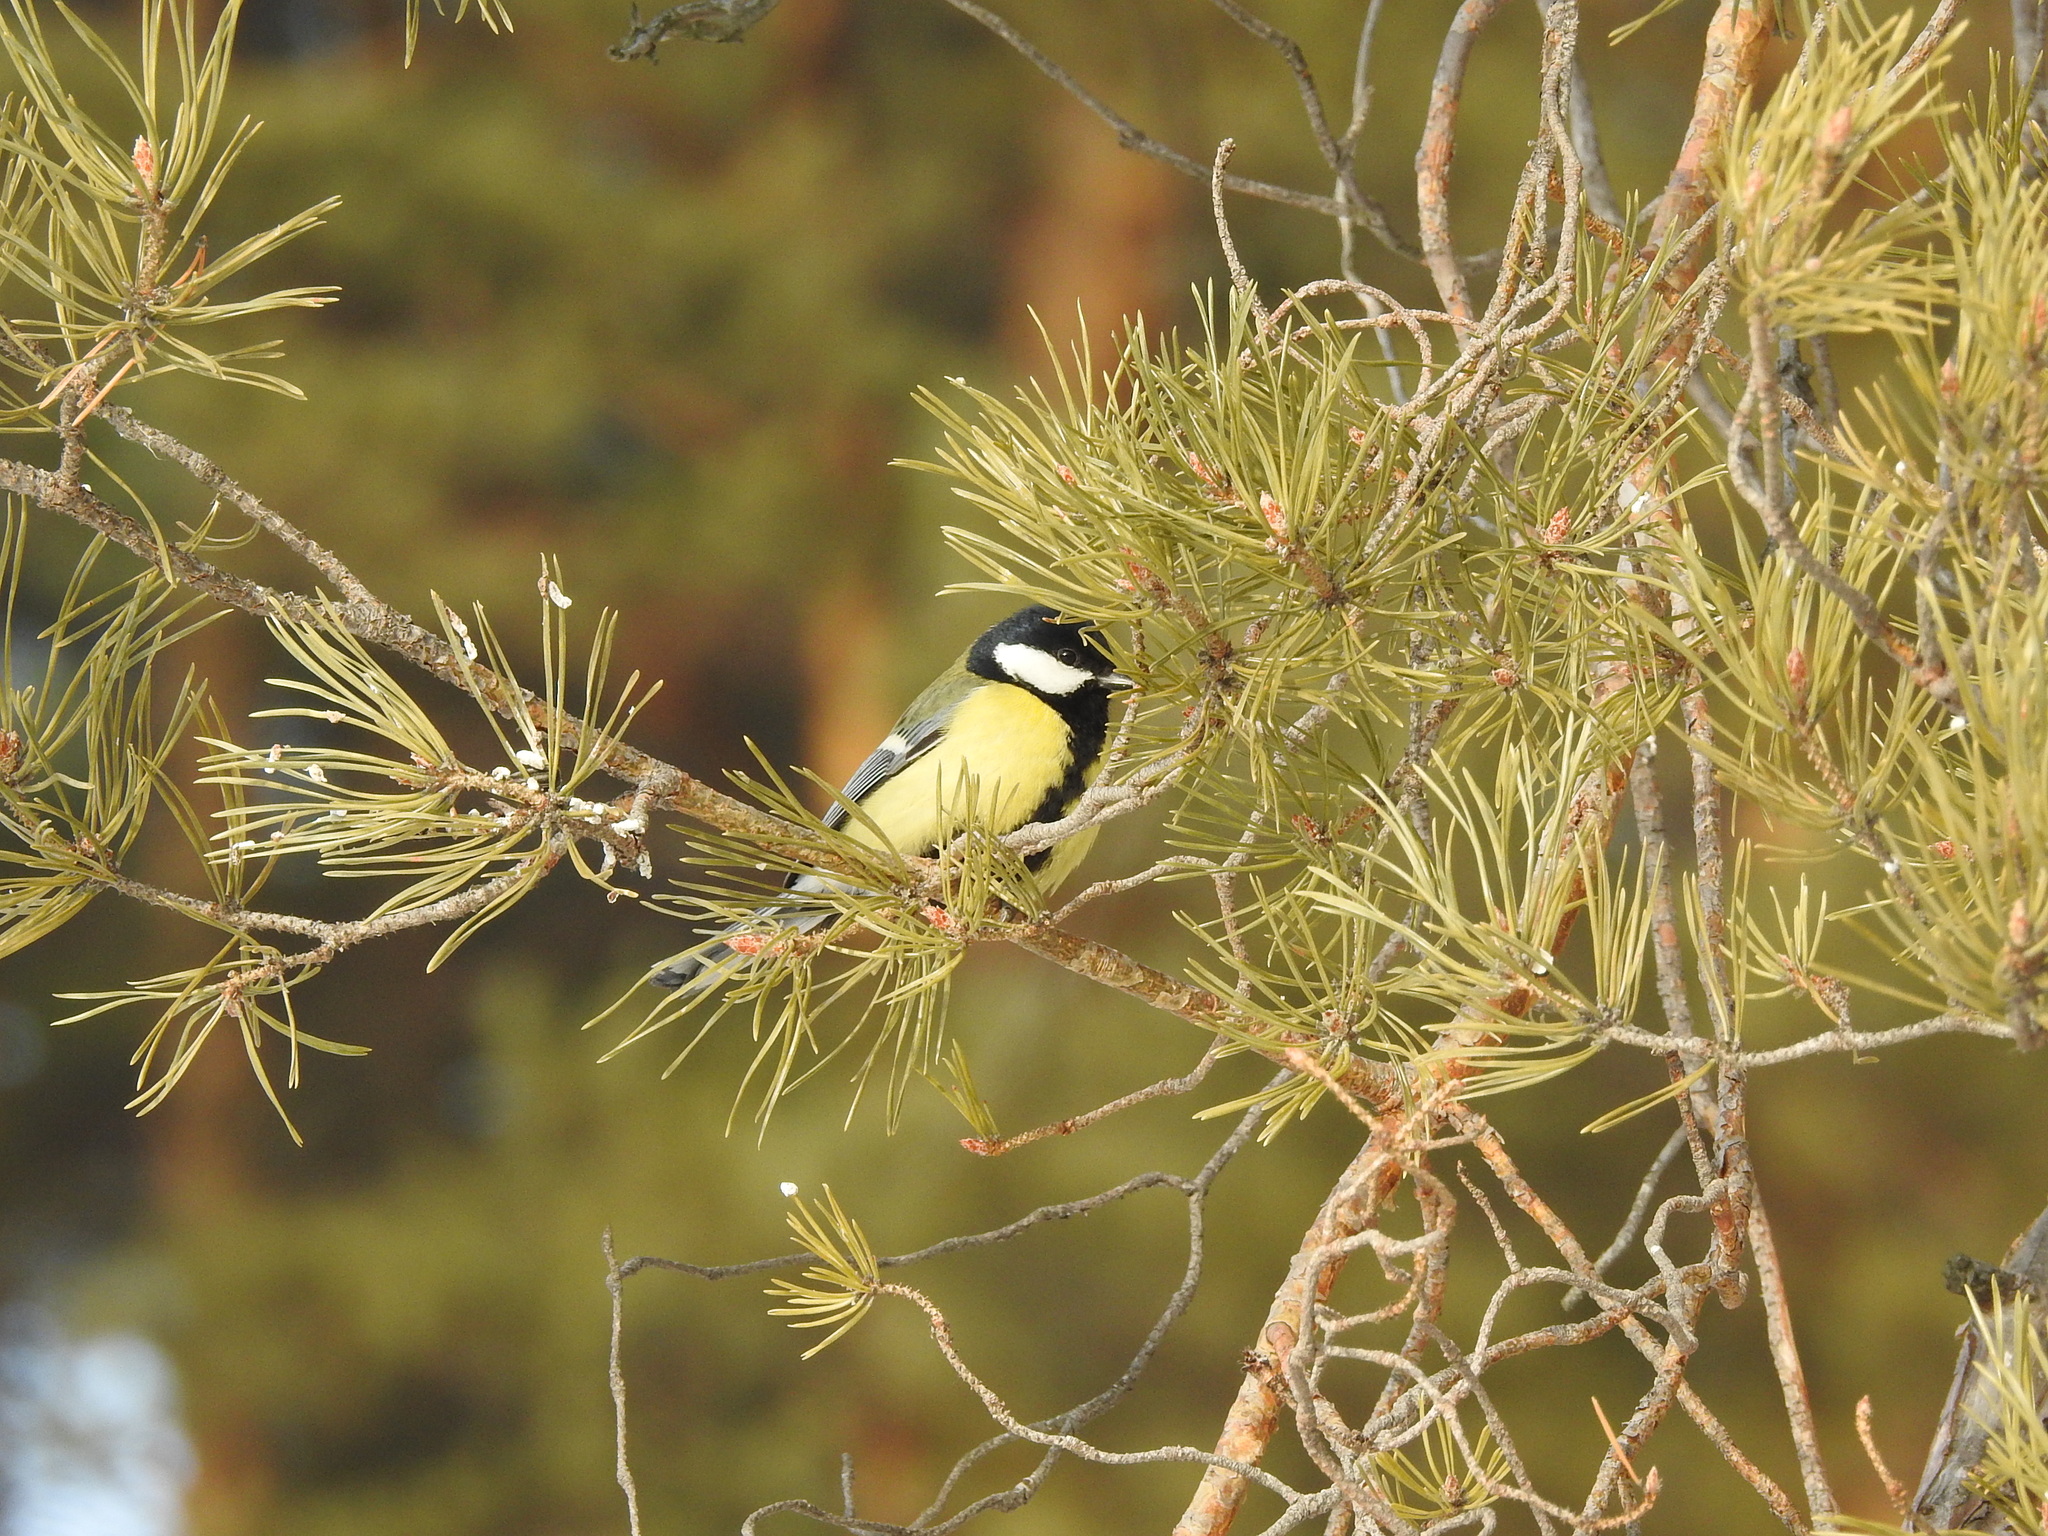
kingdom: Animalia
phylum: Chordata
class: Aves
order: Passeriformes
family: Paridae
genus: Parus
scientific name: Parus major
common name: Great tit
